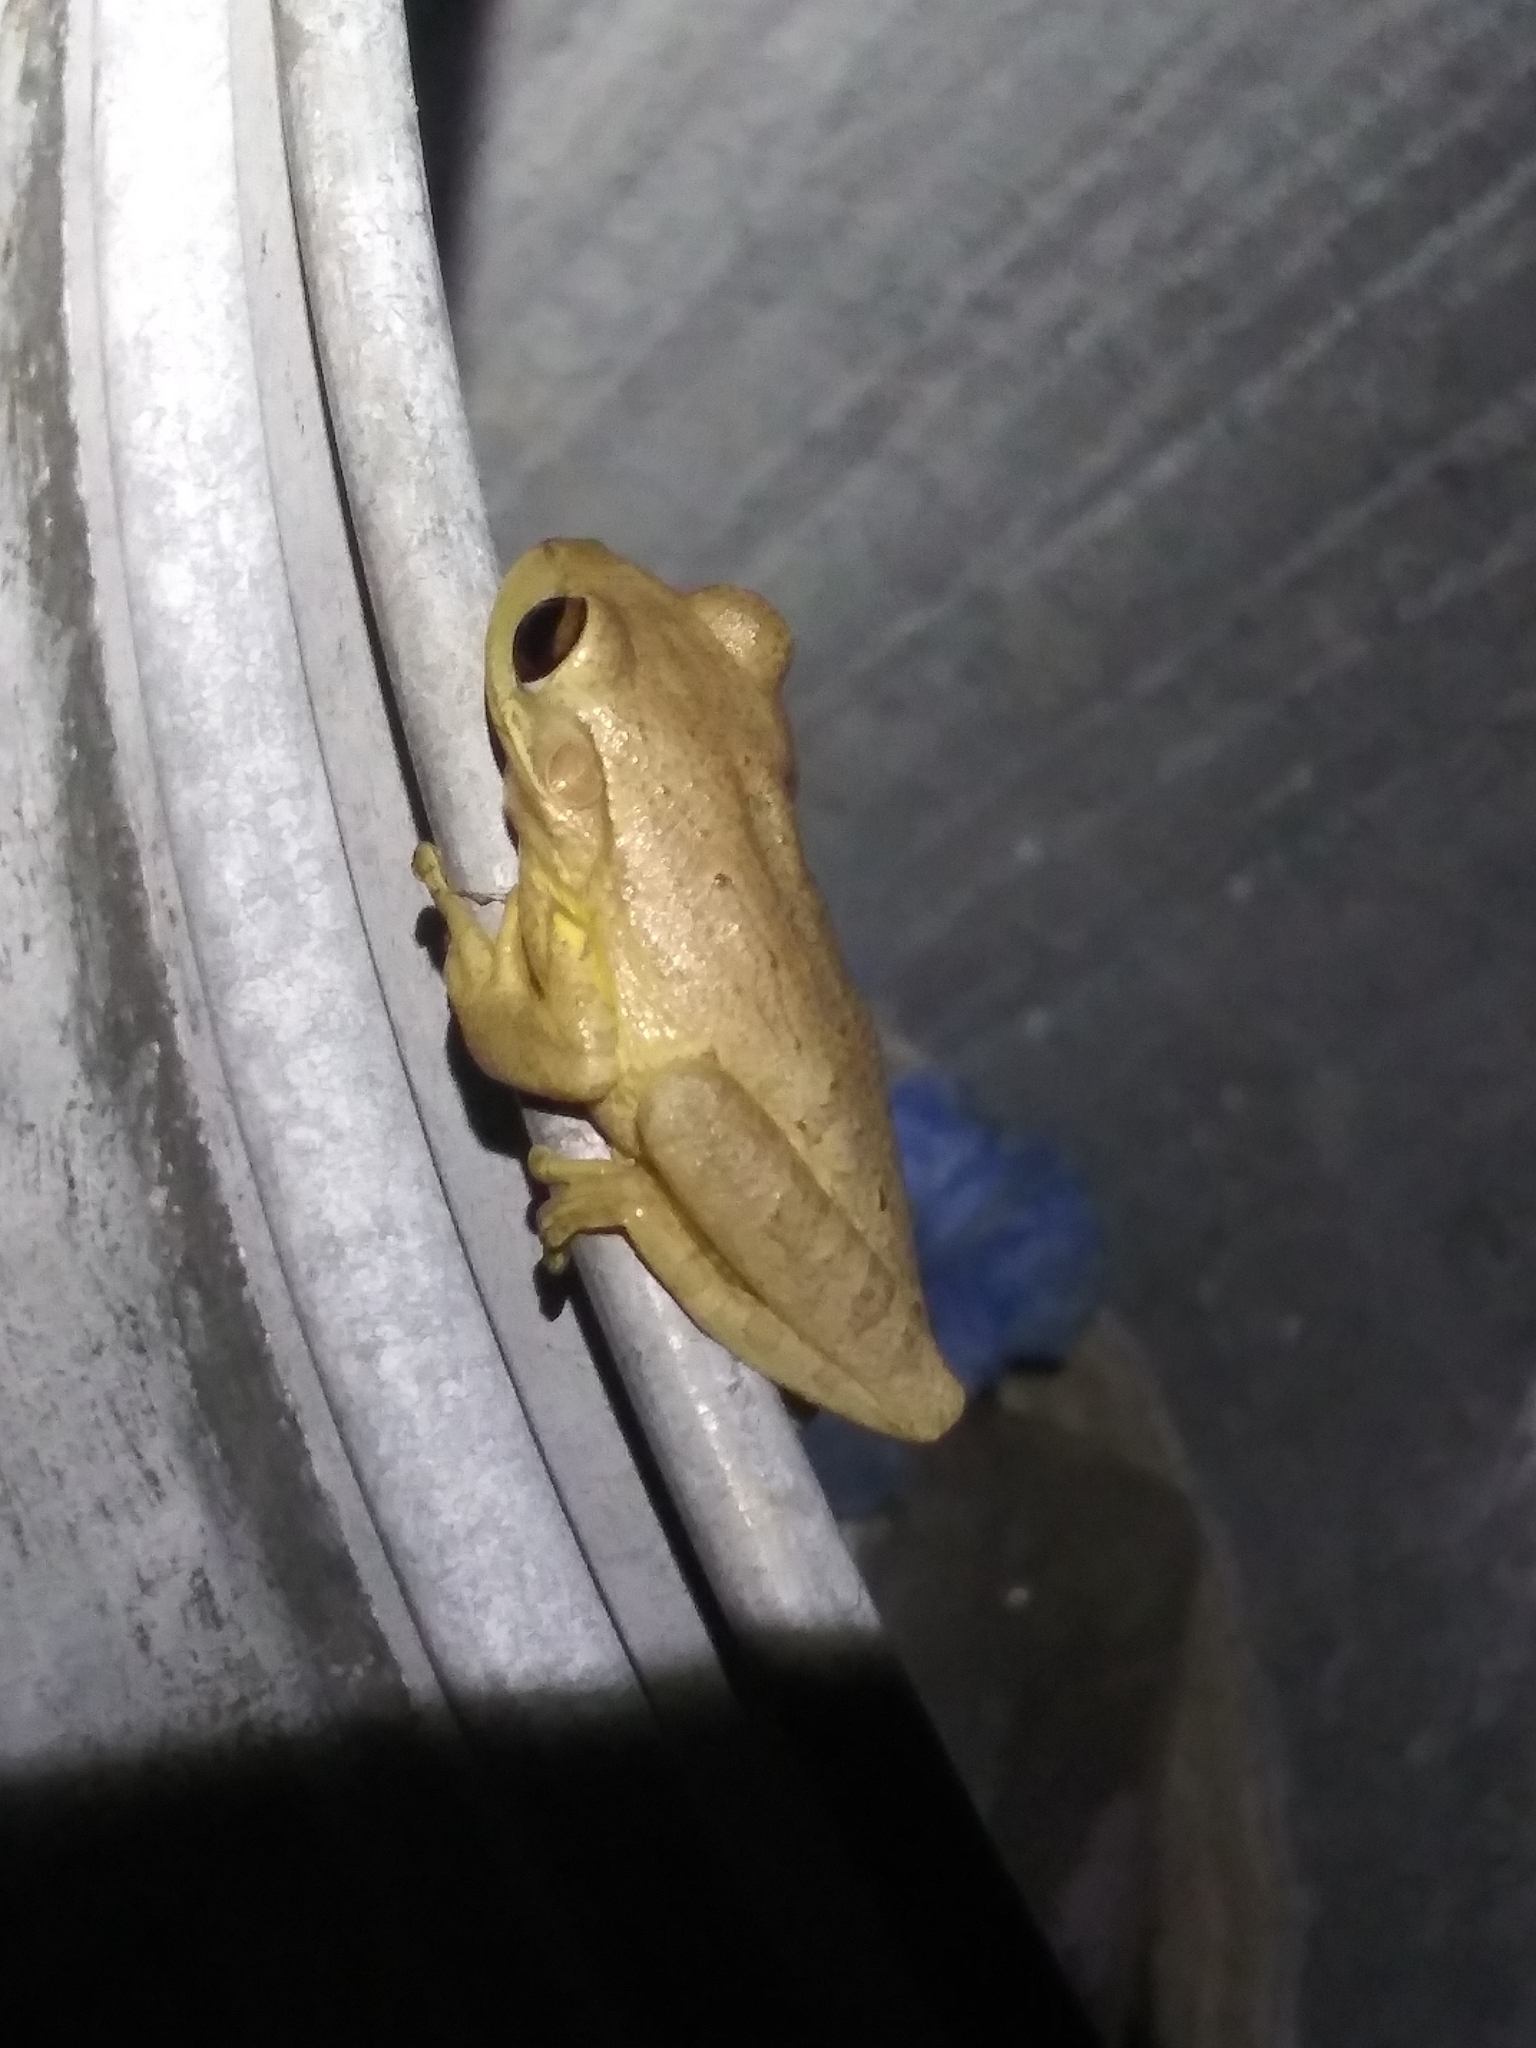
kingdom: Animalia
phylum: Chordata
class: Amphibia
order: Anura
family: Hylidae
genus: Osteopilus
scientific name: Osteopilus septentrionalis
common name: Cuban treefrog
